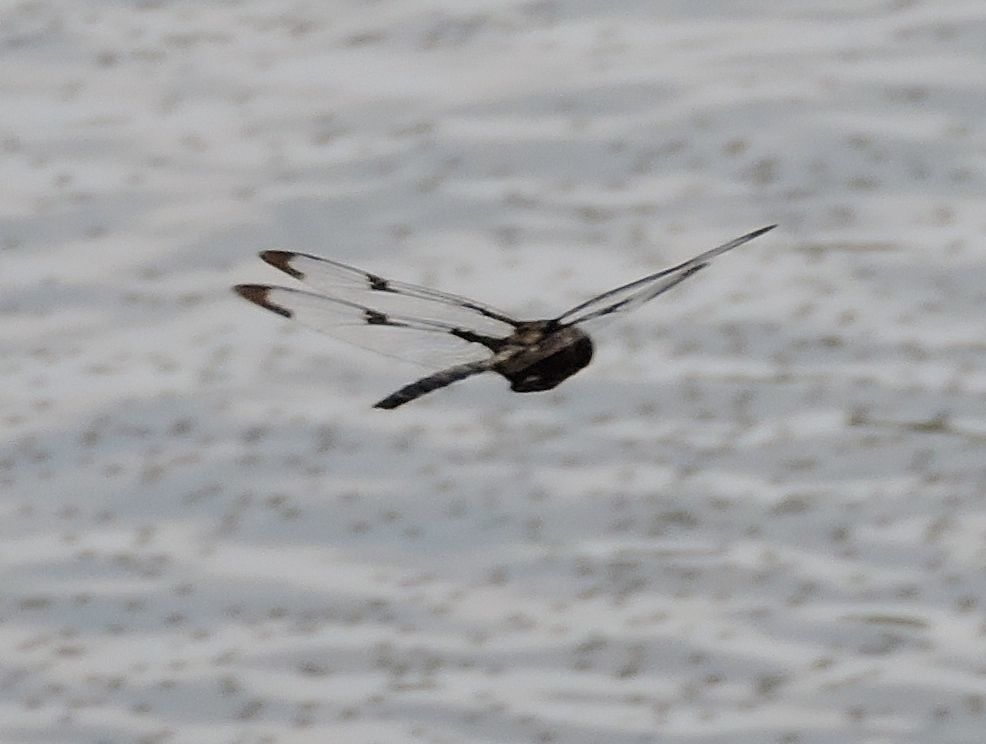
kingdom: Animalia
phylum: Arthropoda
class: Insecta
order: Odonata
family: Corduliidae
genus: Epitheca
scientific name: Epitheca princeps
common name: Prince baskettail
